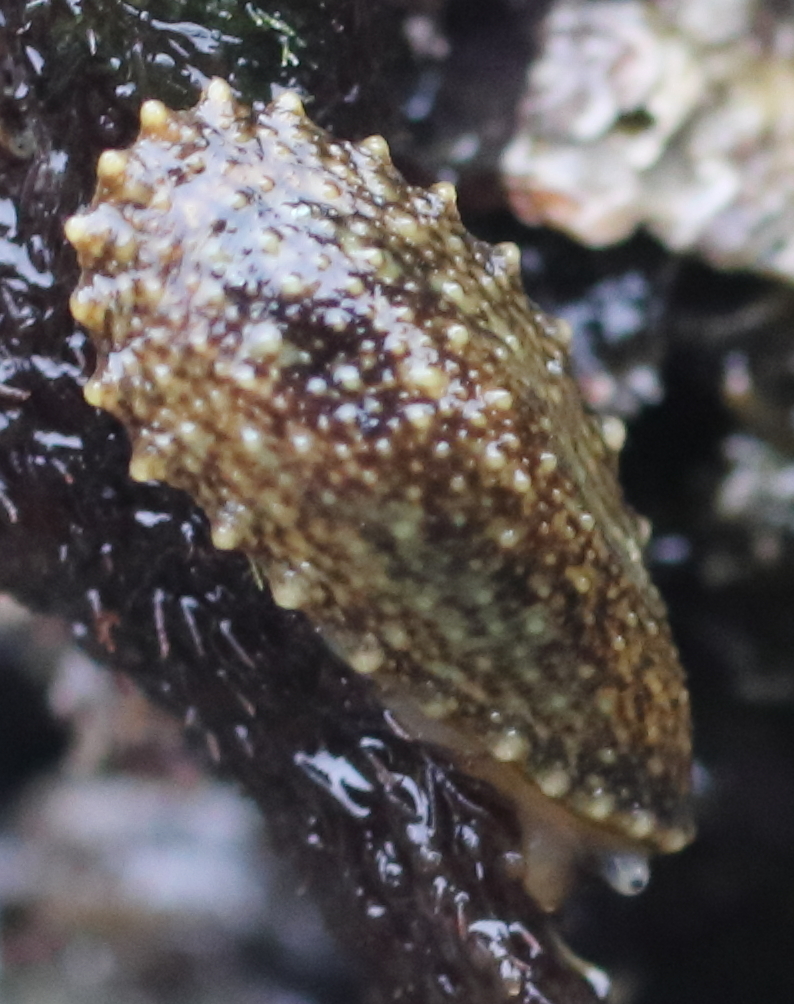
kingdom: Animalia
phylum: Mollusca
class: Gastropoda
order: Systellommatophora
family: Onchidiidae
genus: Onchidella
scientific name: Onchidella carpenteri
